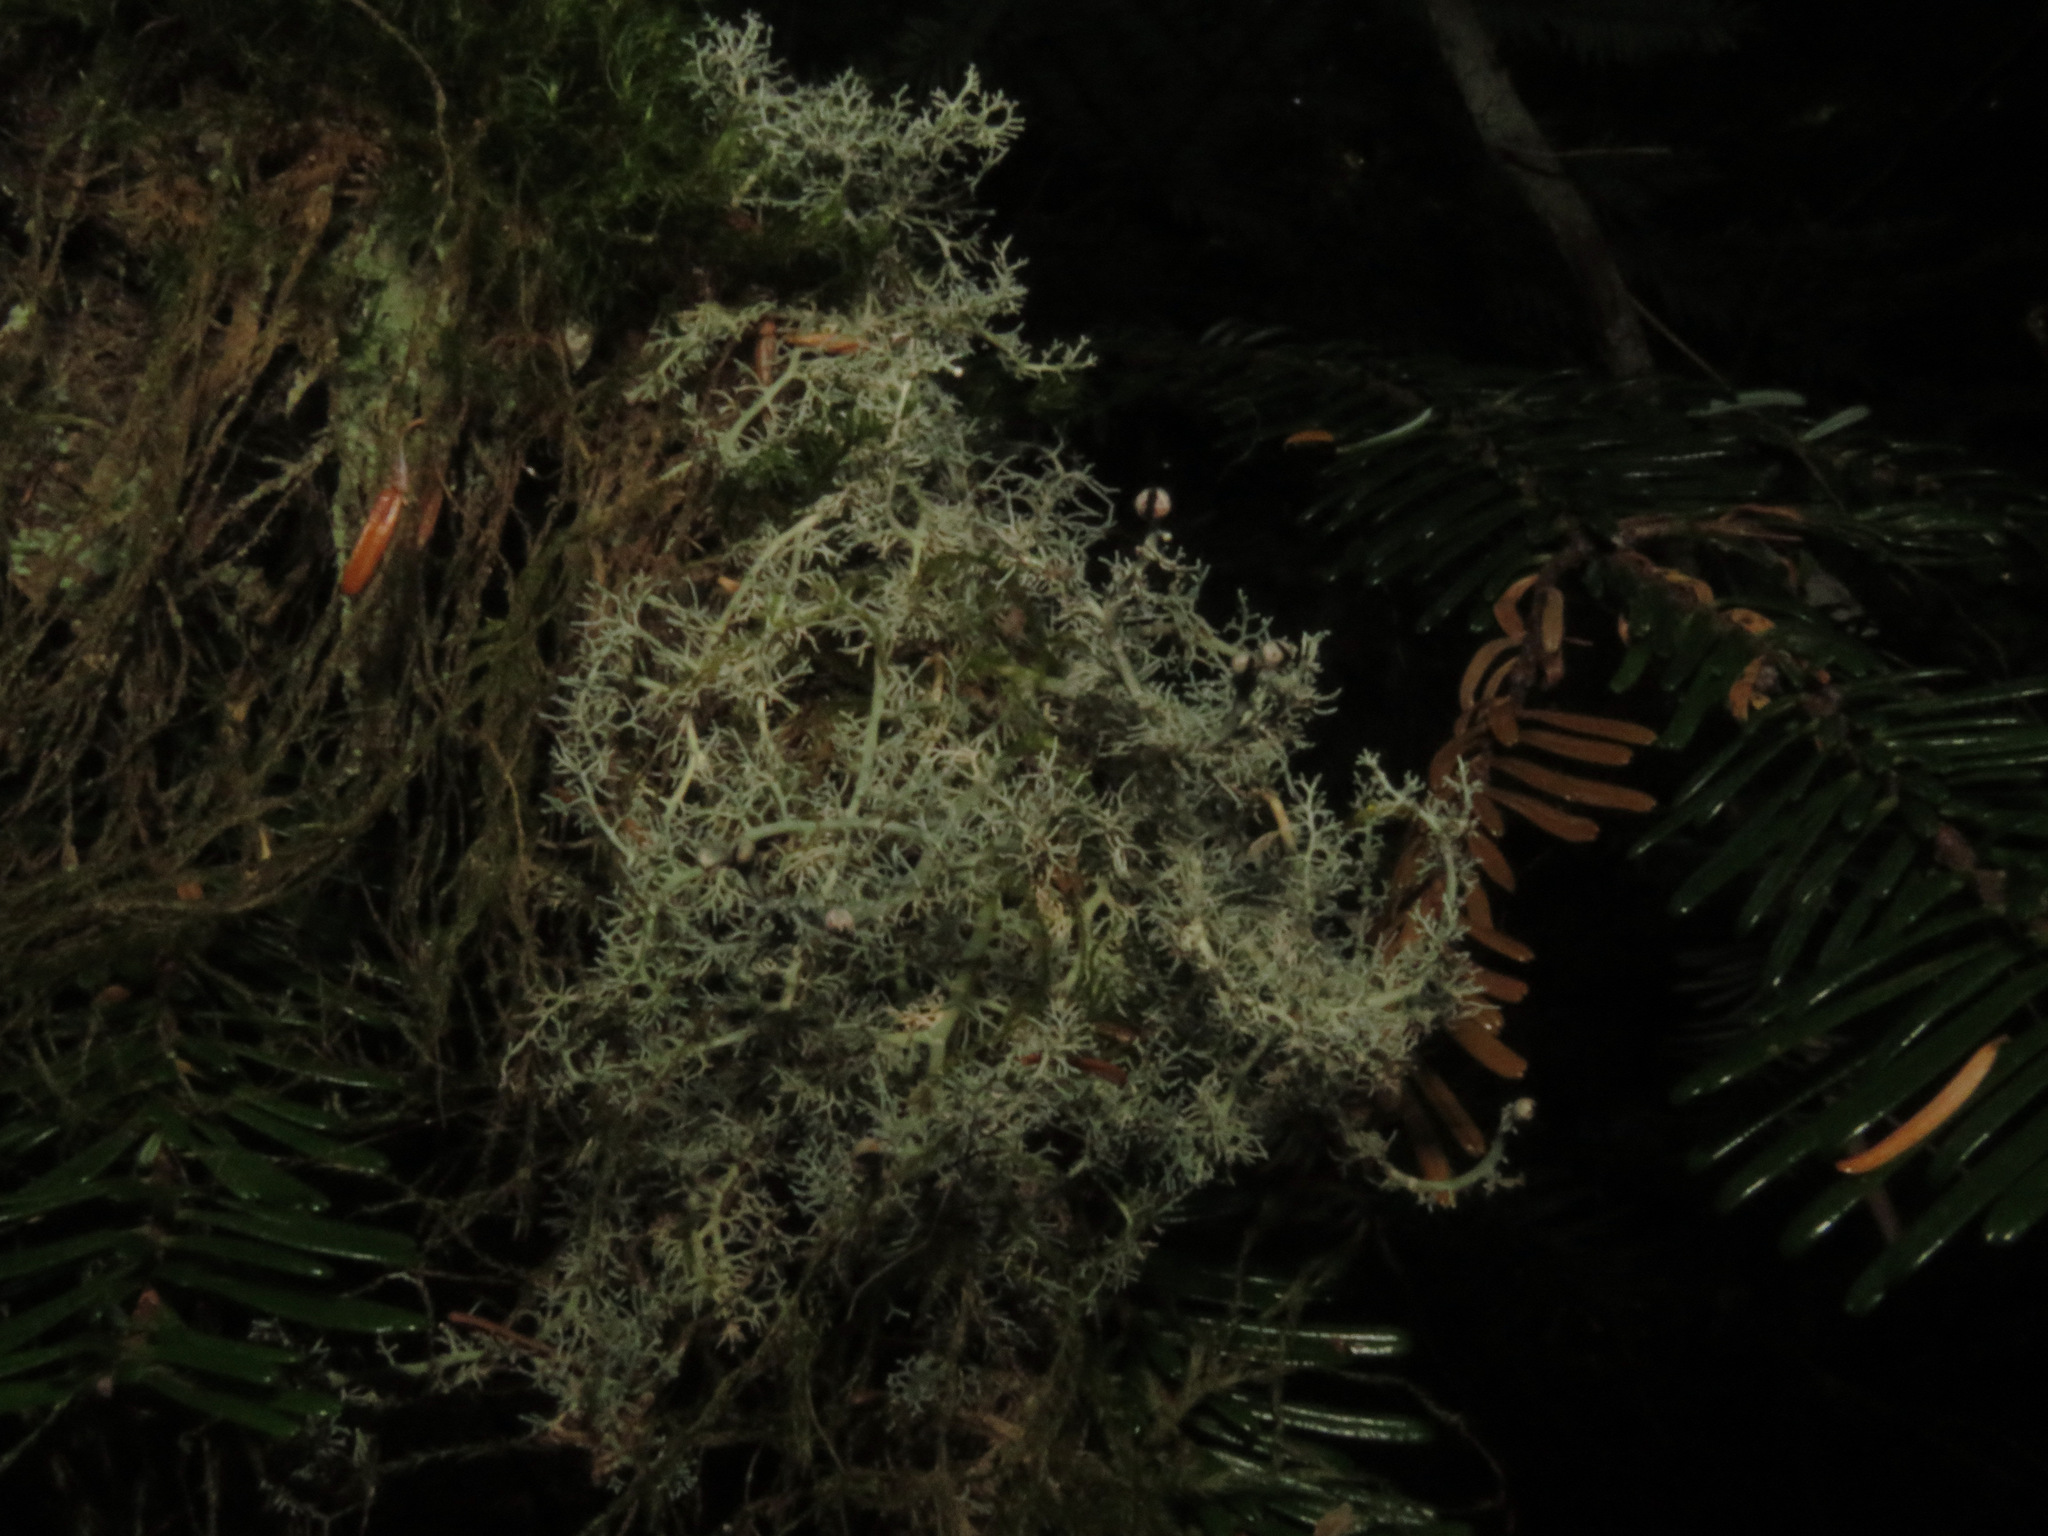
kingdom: Fungi
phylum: Ascomycota
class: Lecanoromycetes
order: Lecanorales
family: Sphaerophoraceae
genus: Sphaerophorus
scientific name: Sphaerophorus globosus
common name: Globe ball lichen
